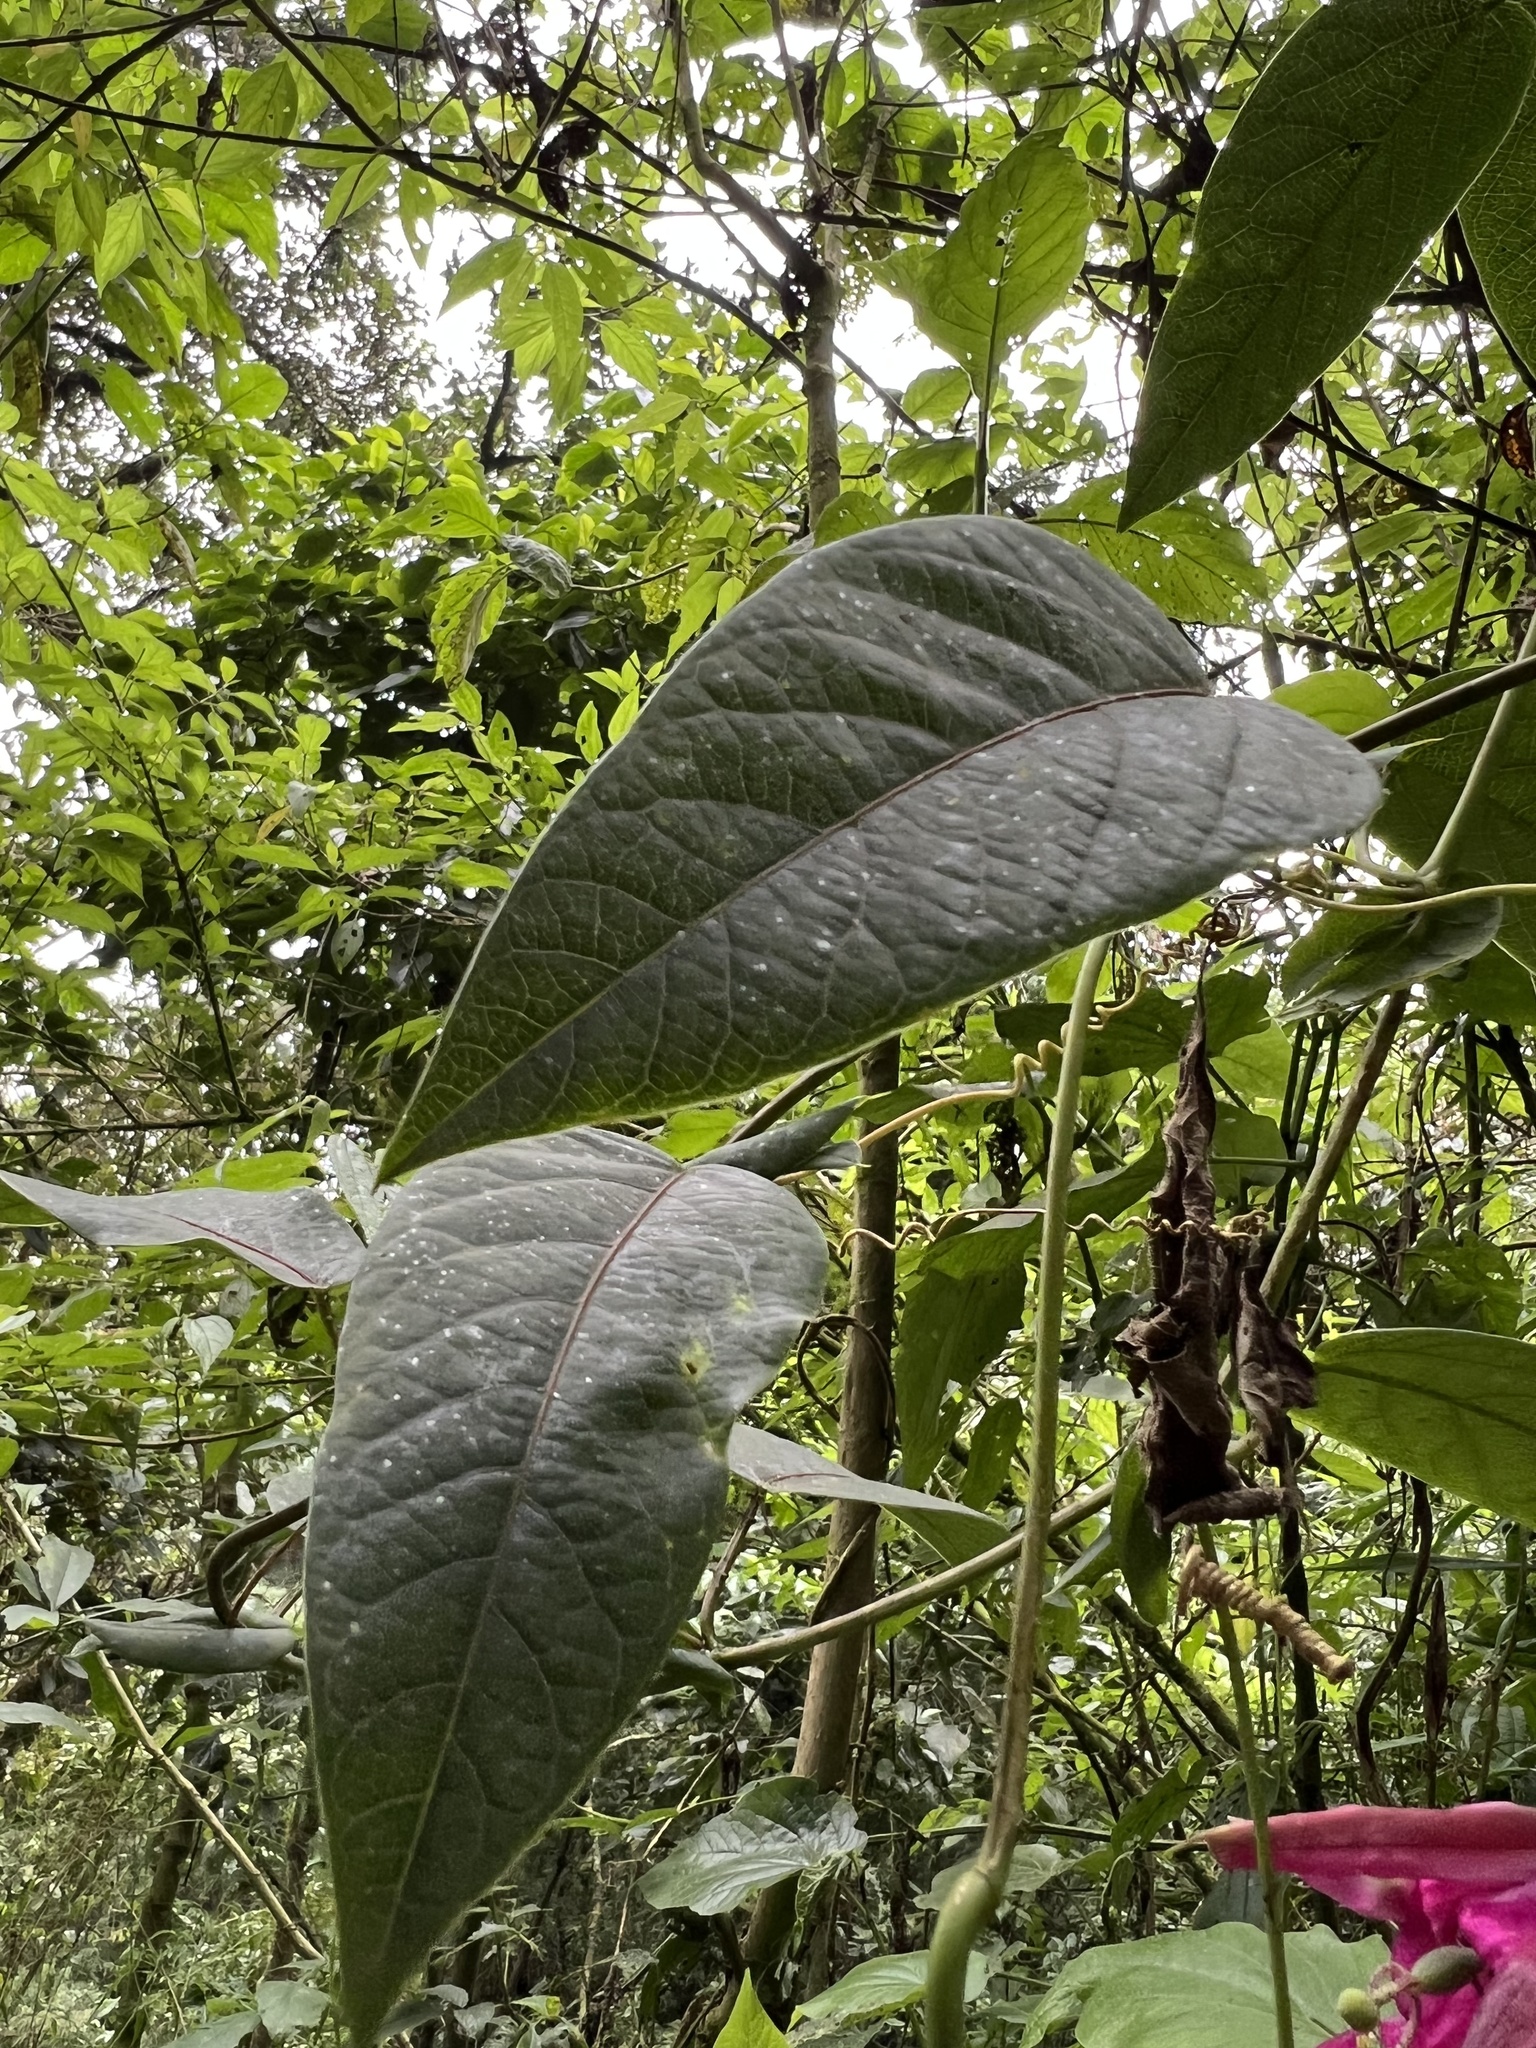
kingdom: Plantae
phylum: Tracheophyta
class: Magnoliopsida
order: Malpighiales
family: Passifloraceae
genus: Passiflora
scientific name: Passiflora longipes
